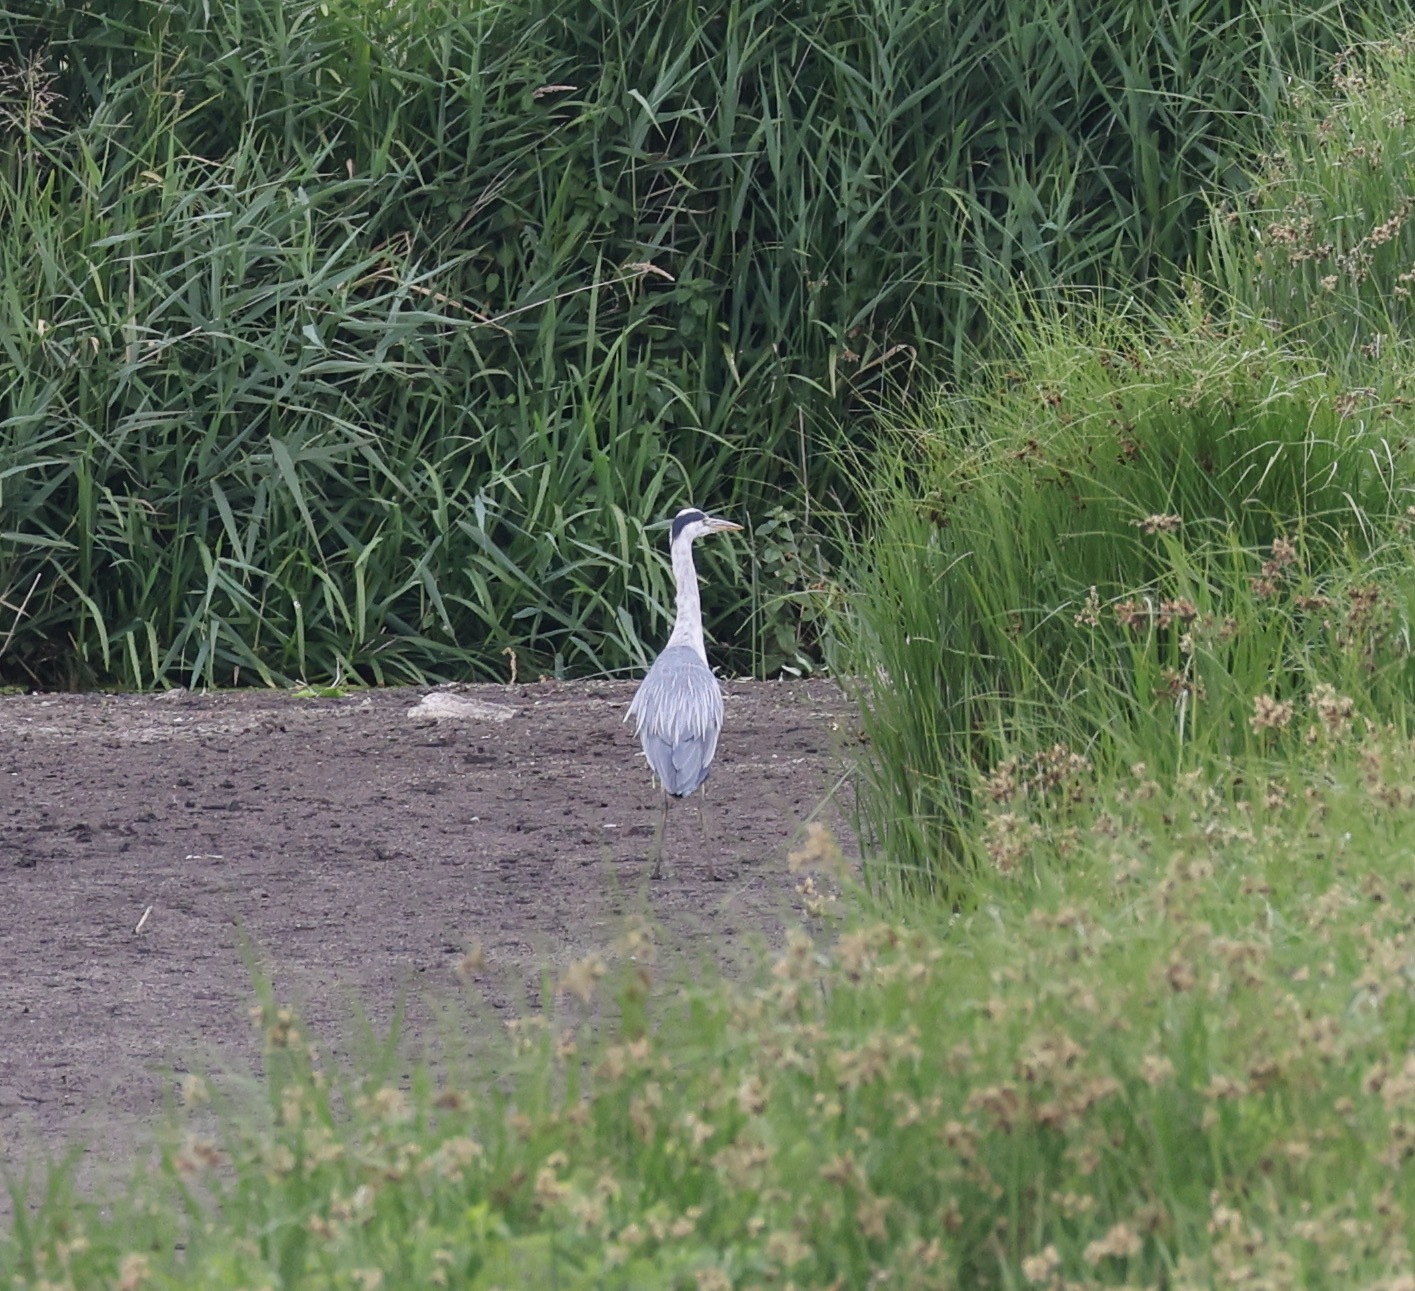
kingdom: Animalia
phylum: Chordata
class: Aves
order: Pelecaniformes
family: Ardeidae
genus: Ardea
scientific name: Ardea cinerea
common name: Grey heron
